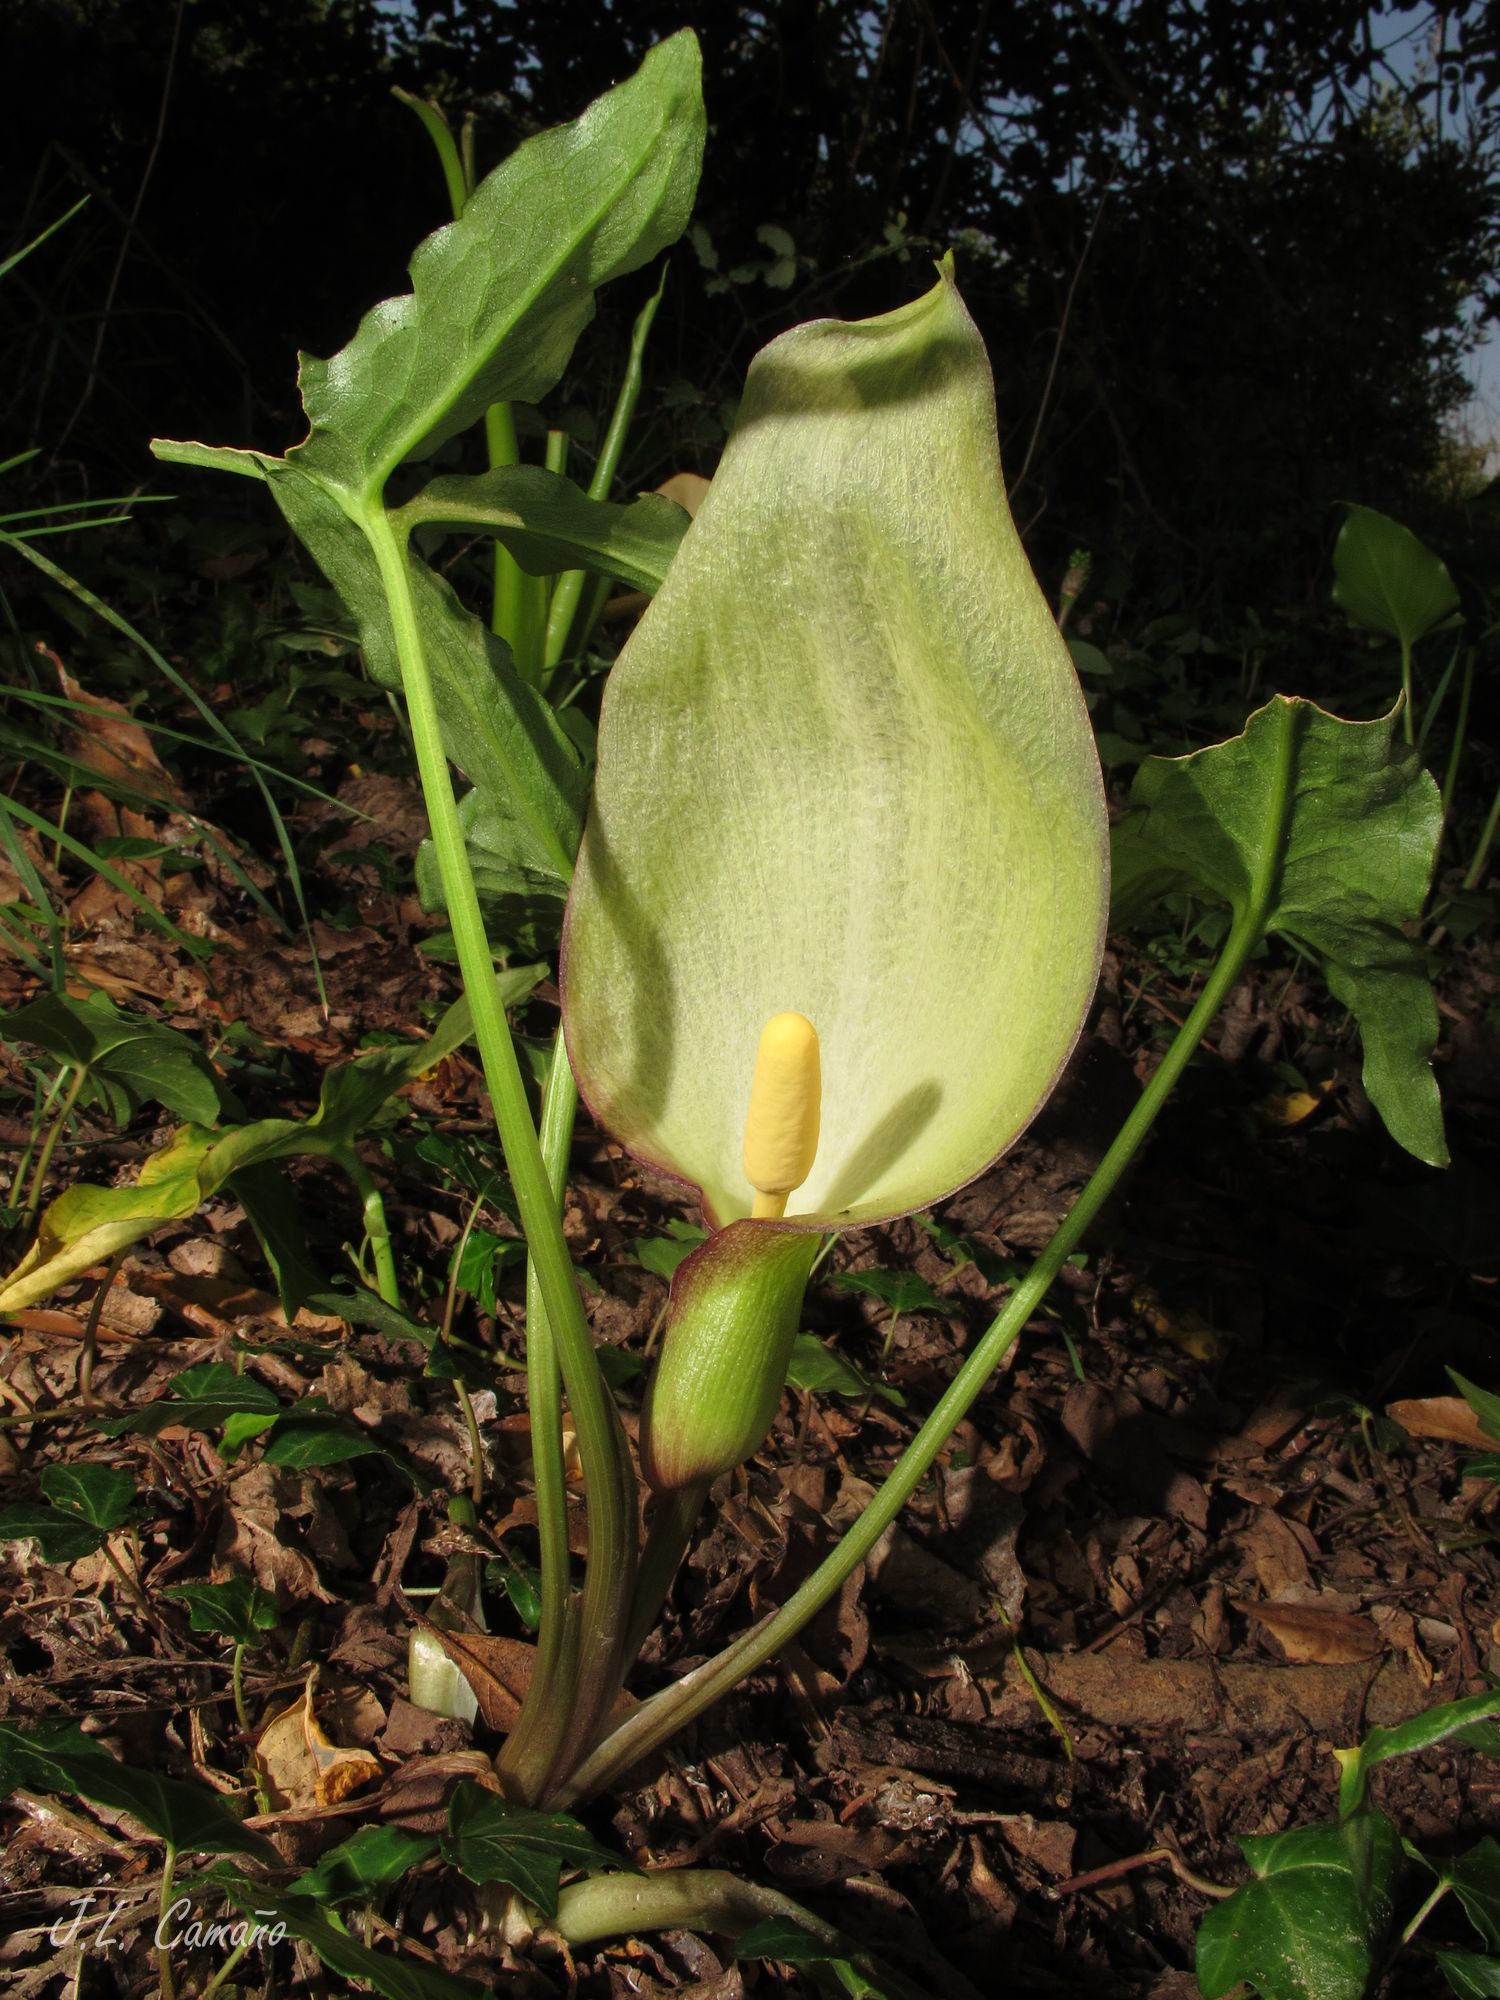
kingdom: Plantae
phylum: Tracheophyta
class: Liliopsida
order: Alismatales
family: Araceae
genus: Arum
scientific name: Arum italicum
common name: Italian lords-and-ladies
